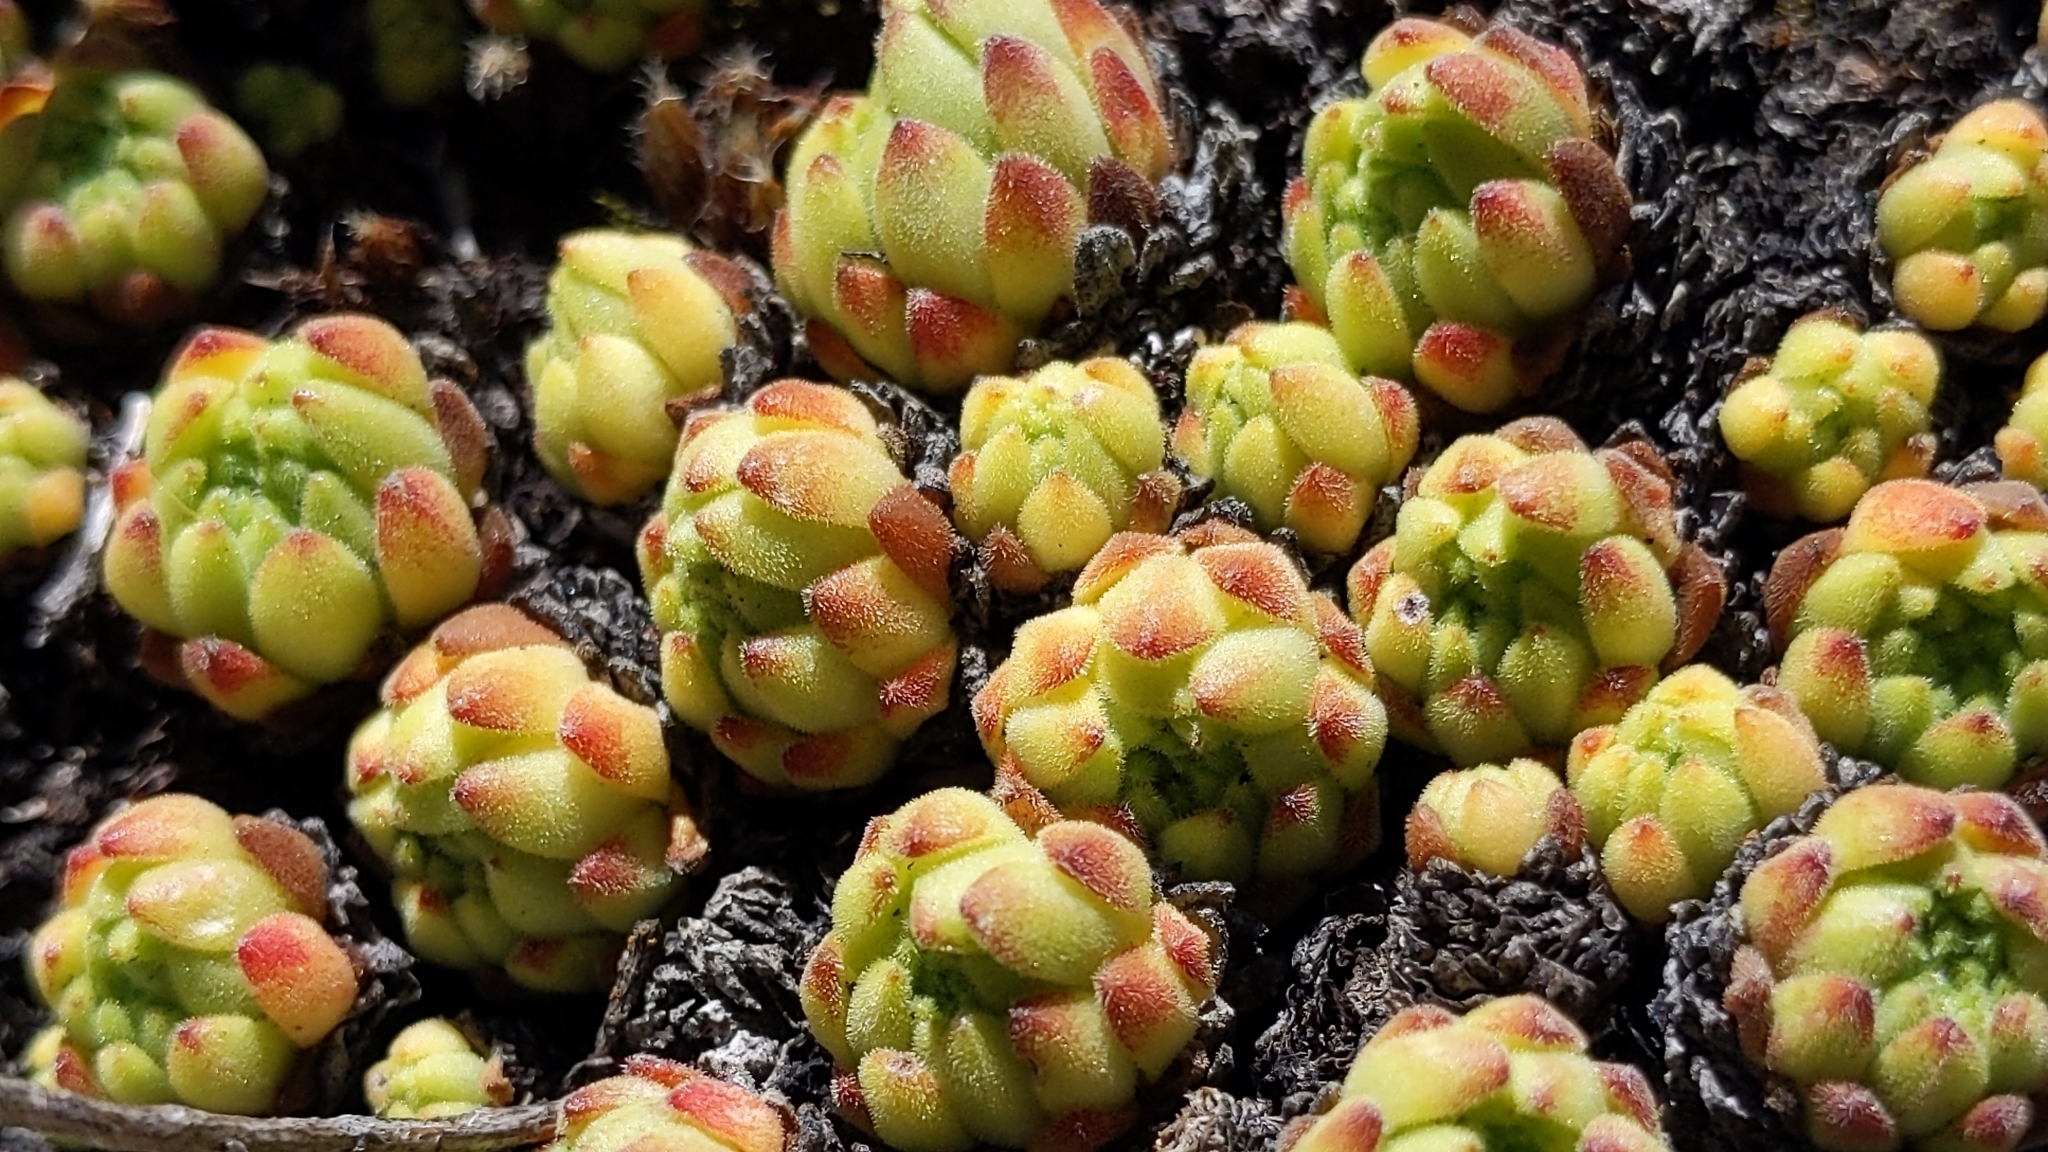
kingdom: Plantae
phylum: Tracheophyta
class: Magnoliopsida
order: Saxifragales
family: Crassulaceae
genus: Sempervivum
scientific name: Sempervivum montanum
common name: Mountain house-leek
